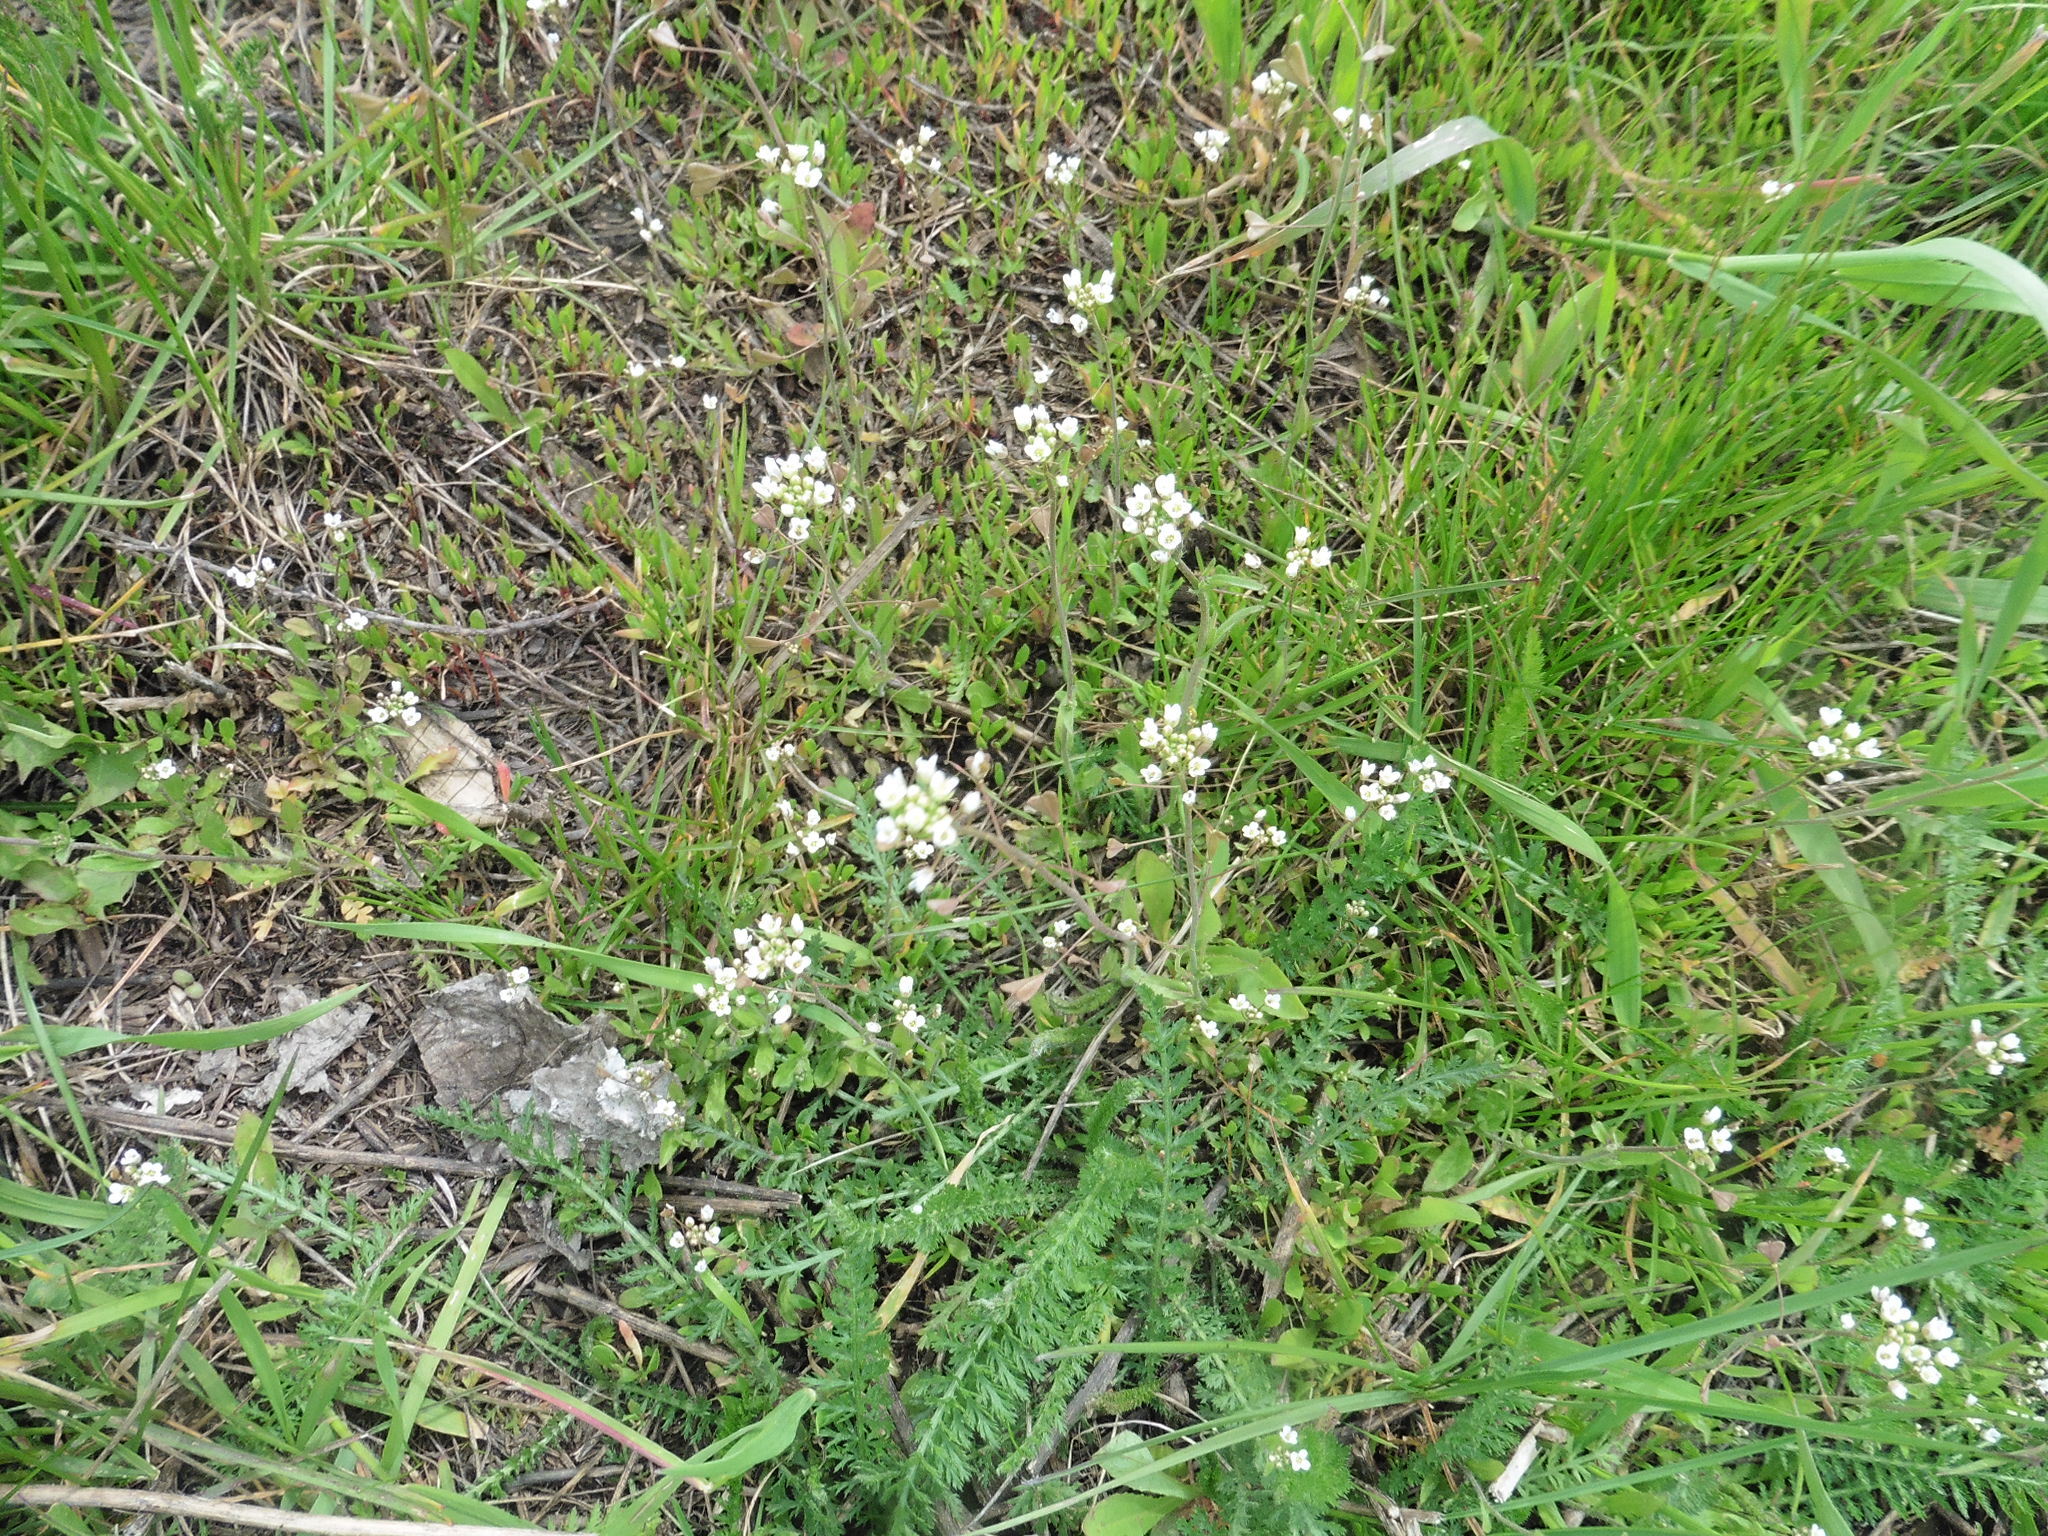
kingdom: Plantae
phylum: Tracheophyta
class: Magnoliopsida
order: Brassicales
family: Brassicaceae
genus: Capsella
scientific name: Capsella bursa-pastoris
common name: Shepherd's purse
